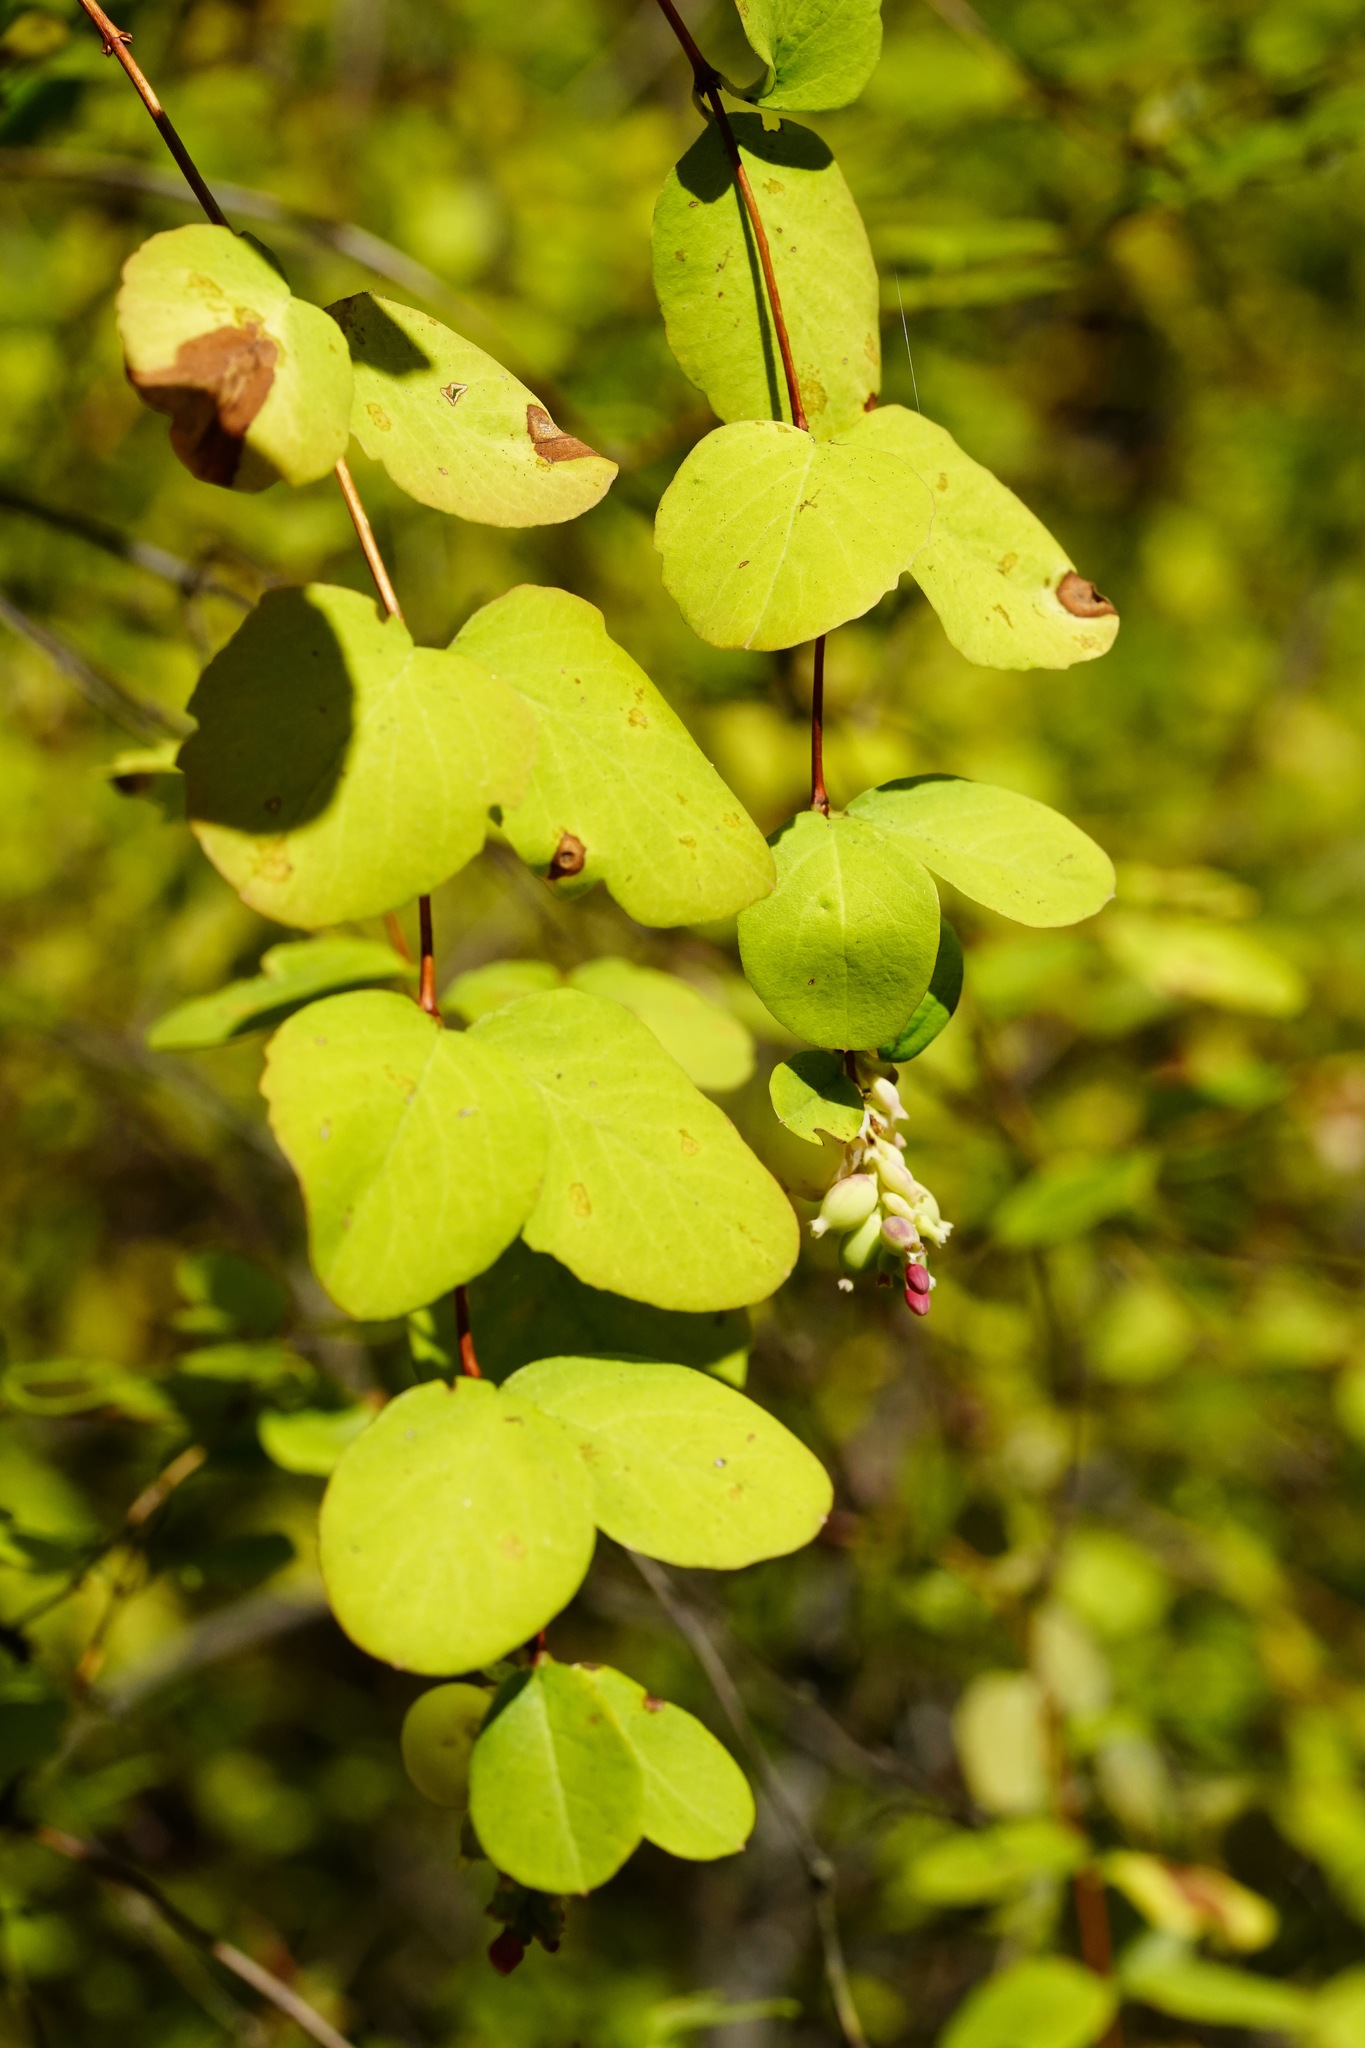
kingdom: Plantae
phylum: Tracheophyta
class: Magnoliopsida
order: Dipsacales
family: Caprifoliaceae
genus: Symphoricarpos
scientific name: Symphoricarpos albus
